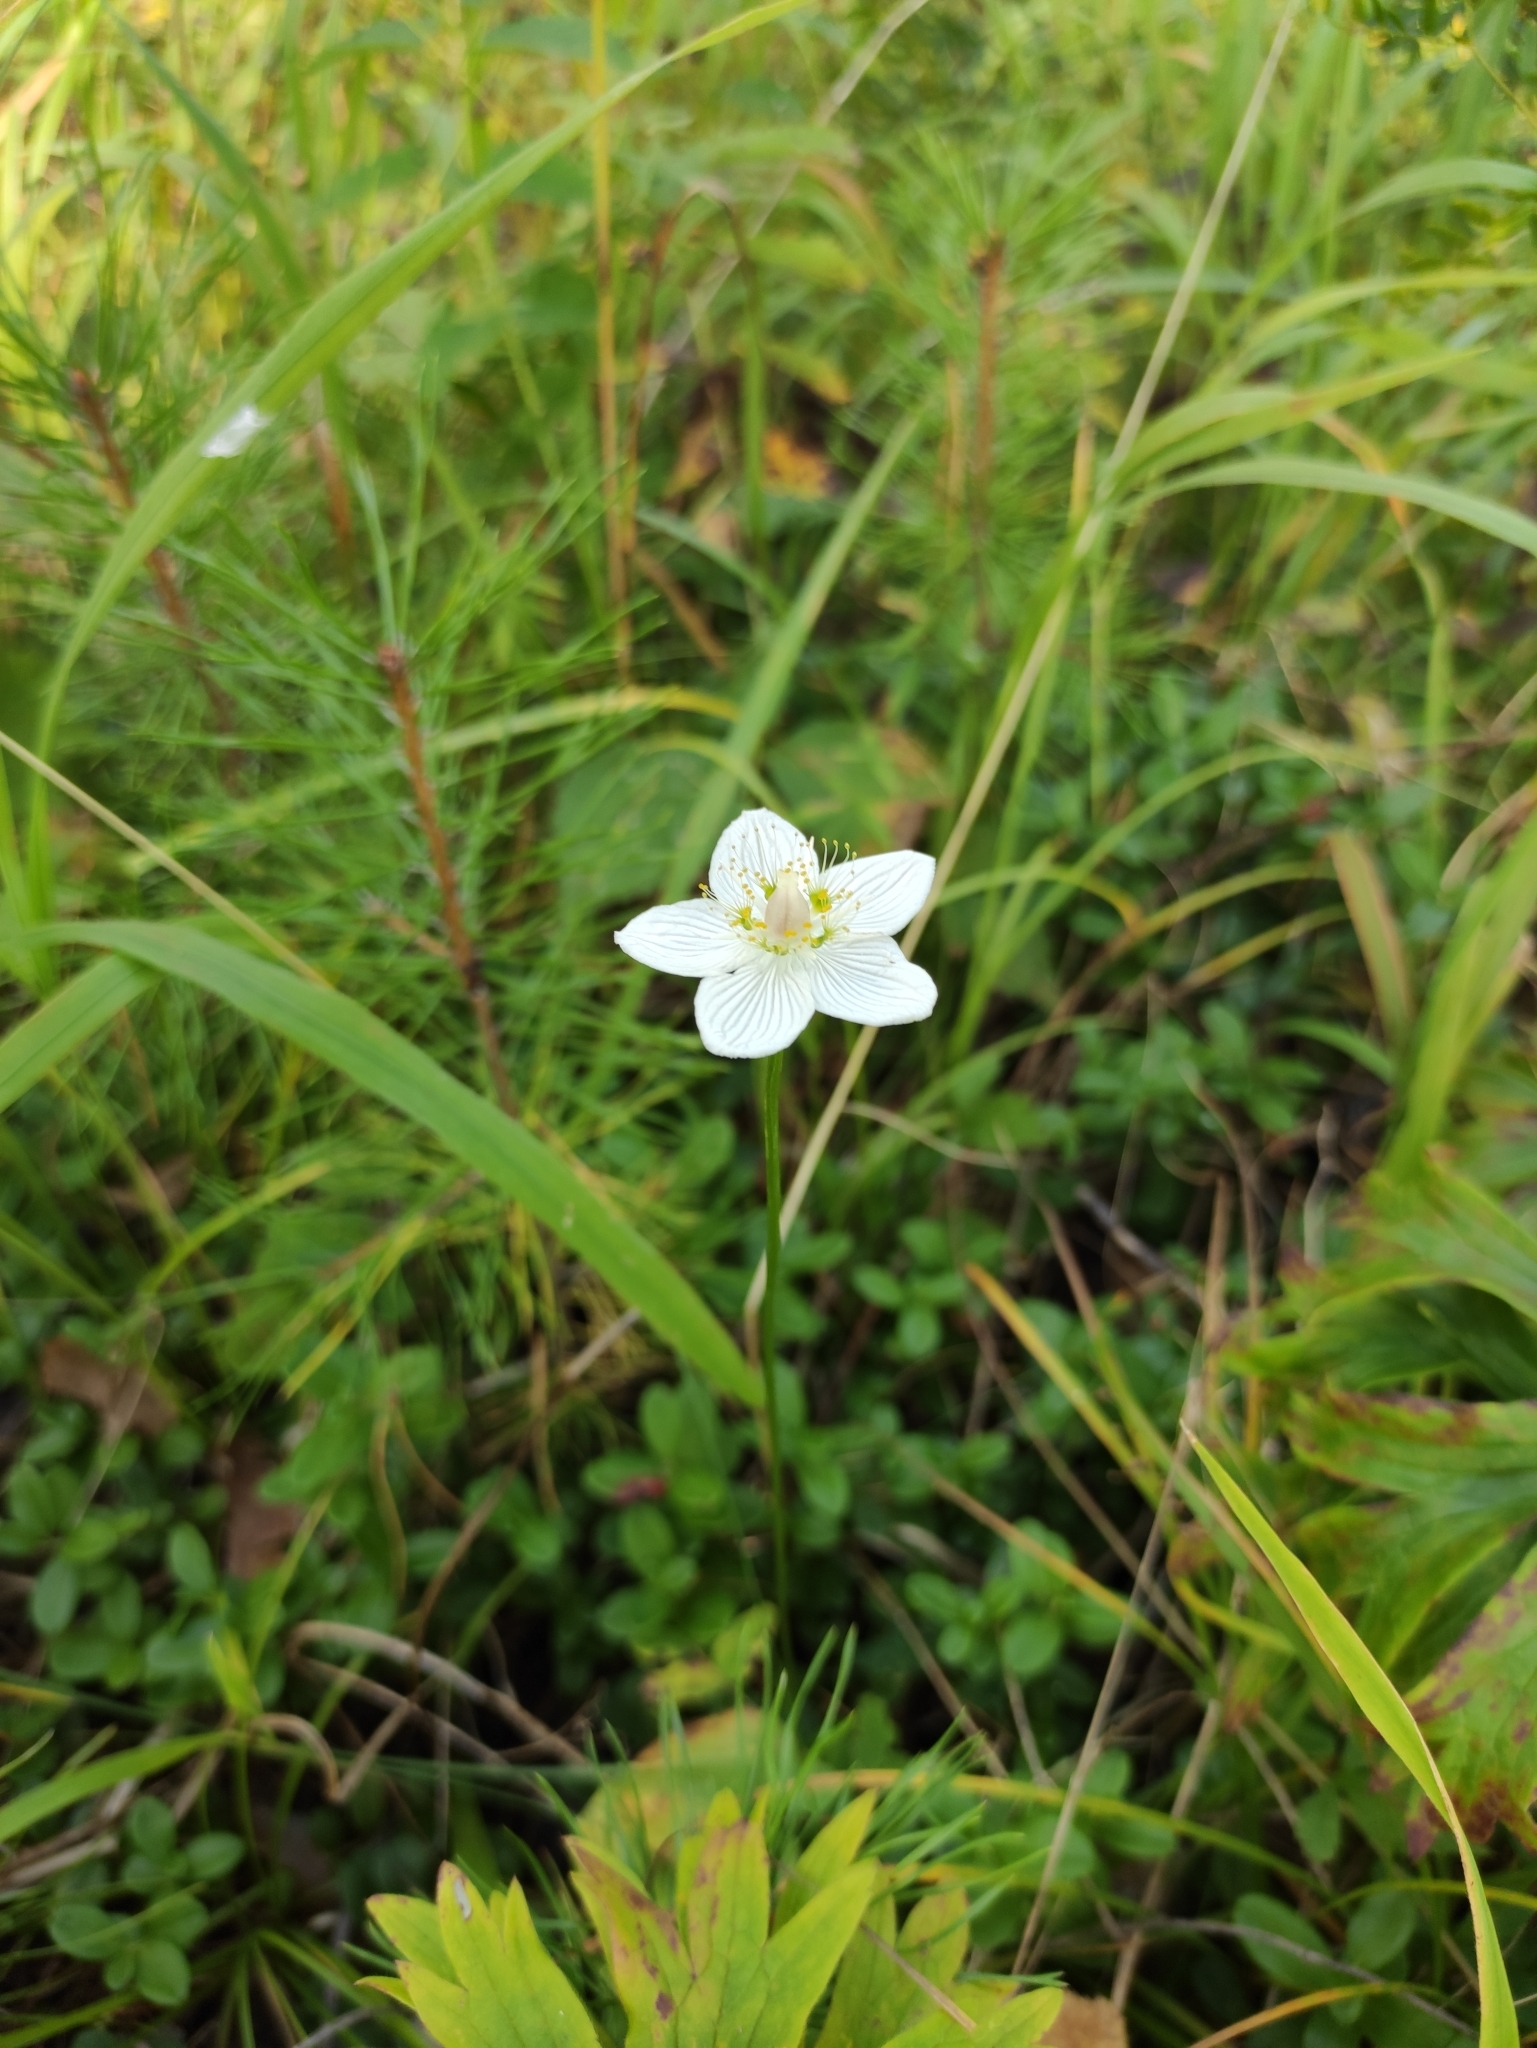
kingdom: Plantae
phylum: Tracheophyta
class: Magnoliopsida
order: Celastrales
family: Parnassiaceae
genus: Parnassia
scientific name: Parnassia palustris
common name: Grass-of-parnassus
